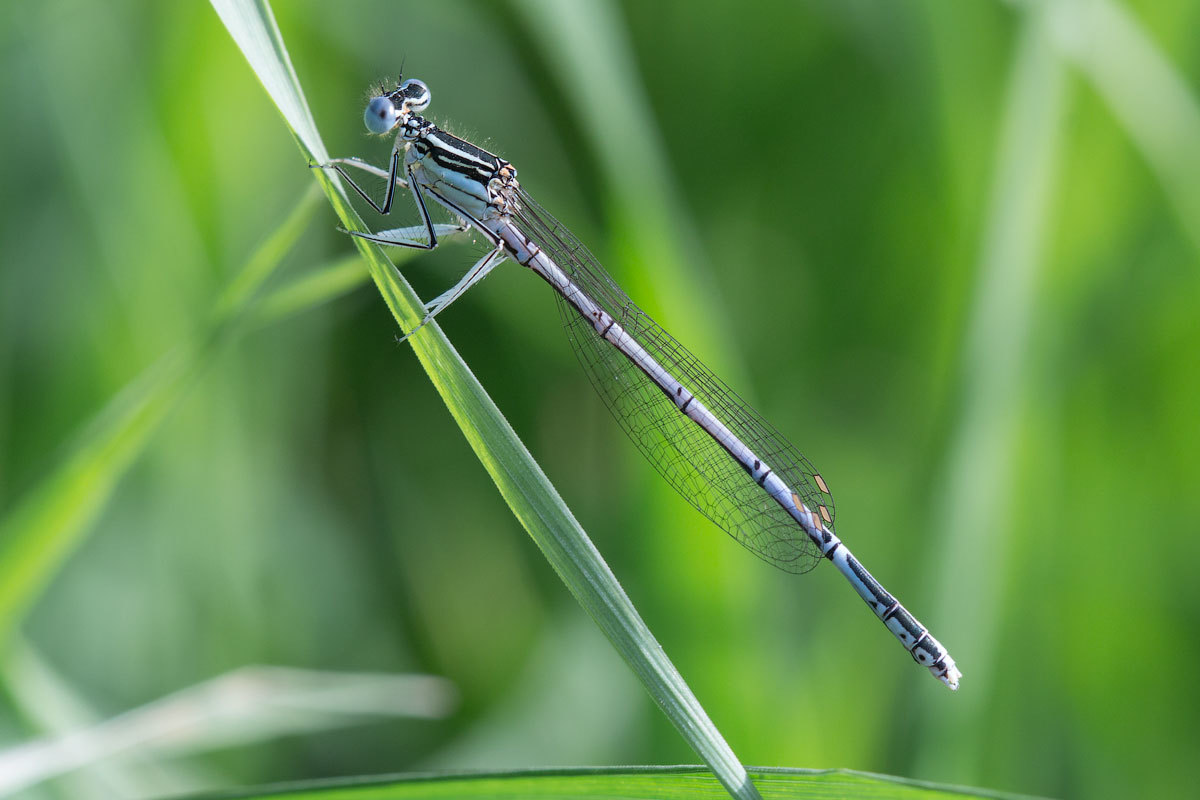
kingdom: Animalia
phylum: Arthropoda
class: Insecta
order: Odonata
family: Platycnemididae
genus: Platycnemis
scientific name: Platycnemis pennipes
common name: White-legged damselfly
